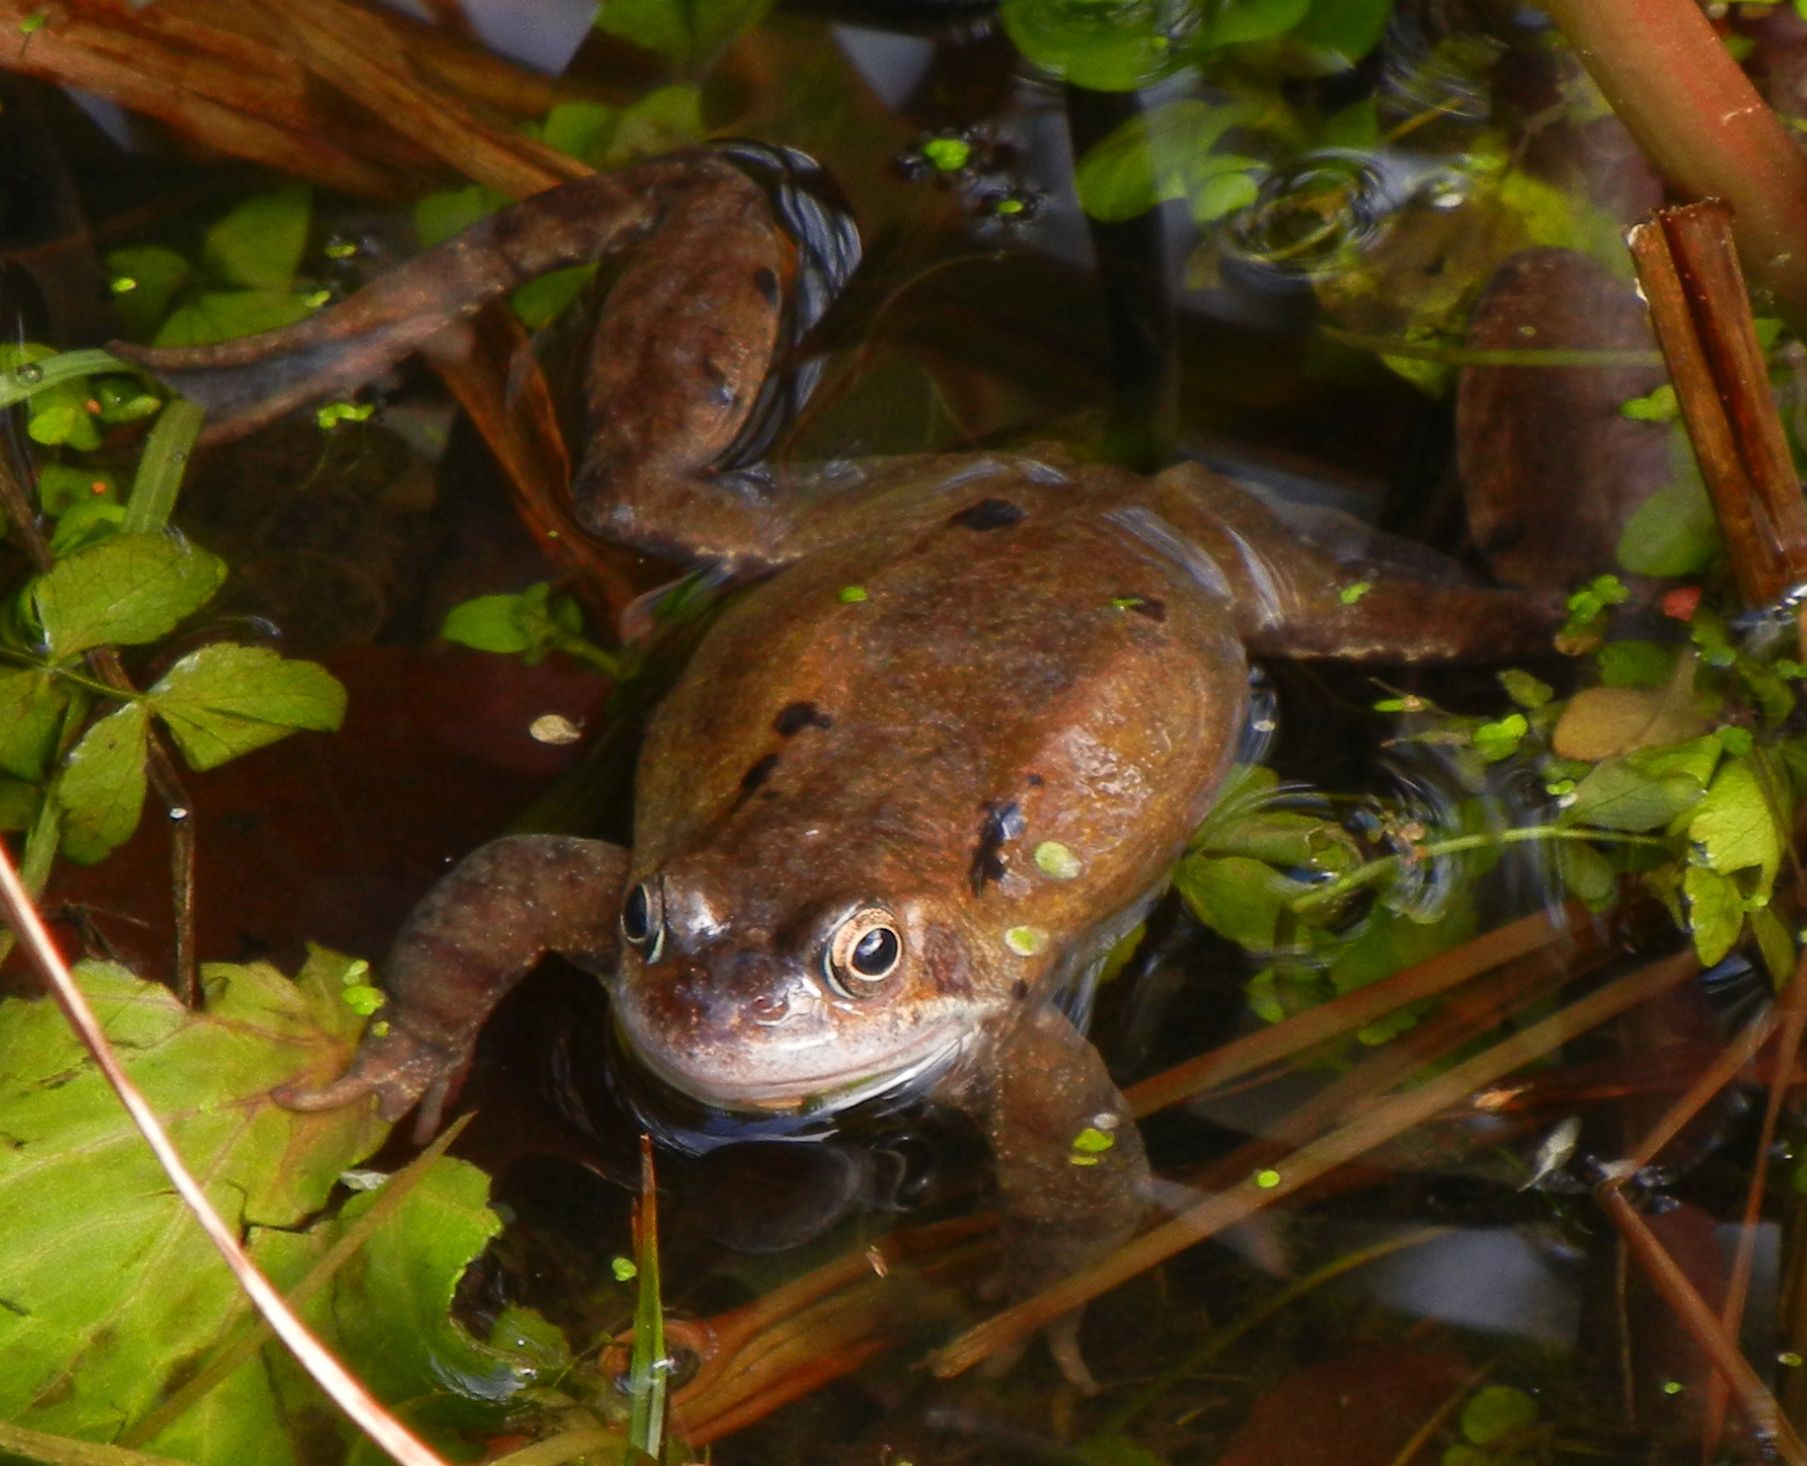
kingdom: Animalia
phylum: Chordata
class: Amphibia
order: Anura
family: Ranidae
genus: Rana
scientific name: Rana temporaria
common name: Common frog
